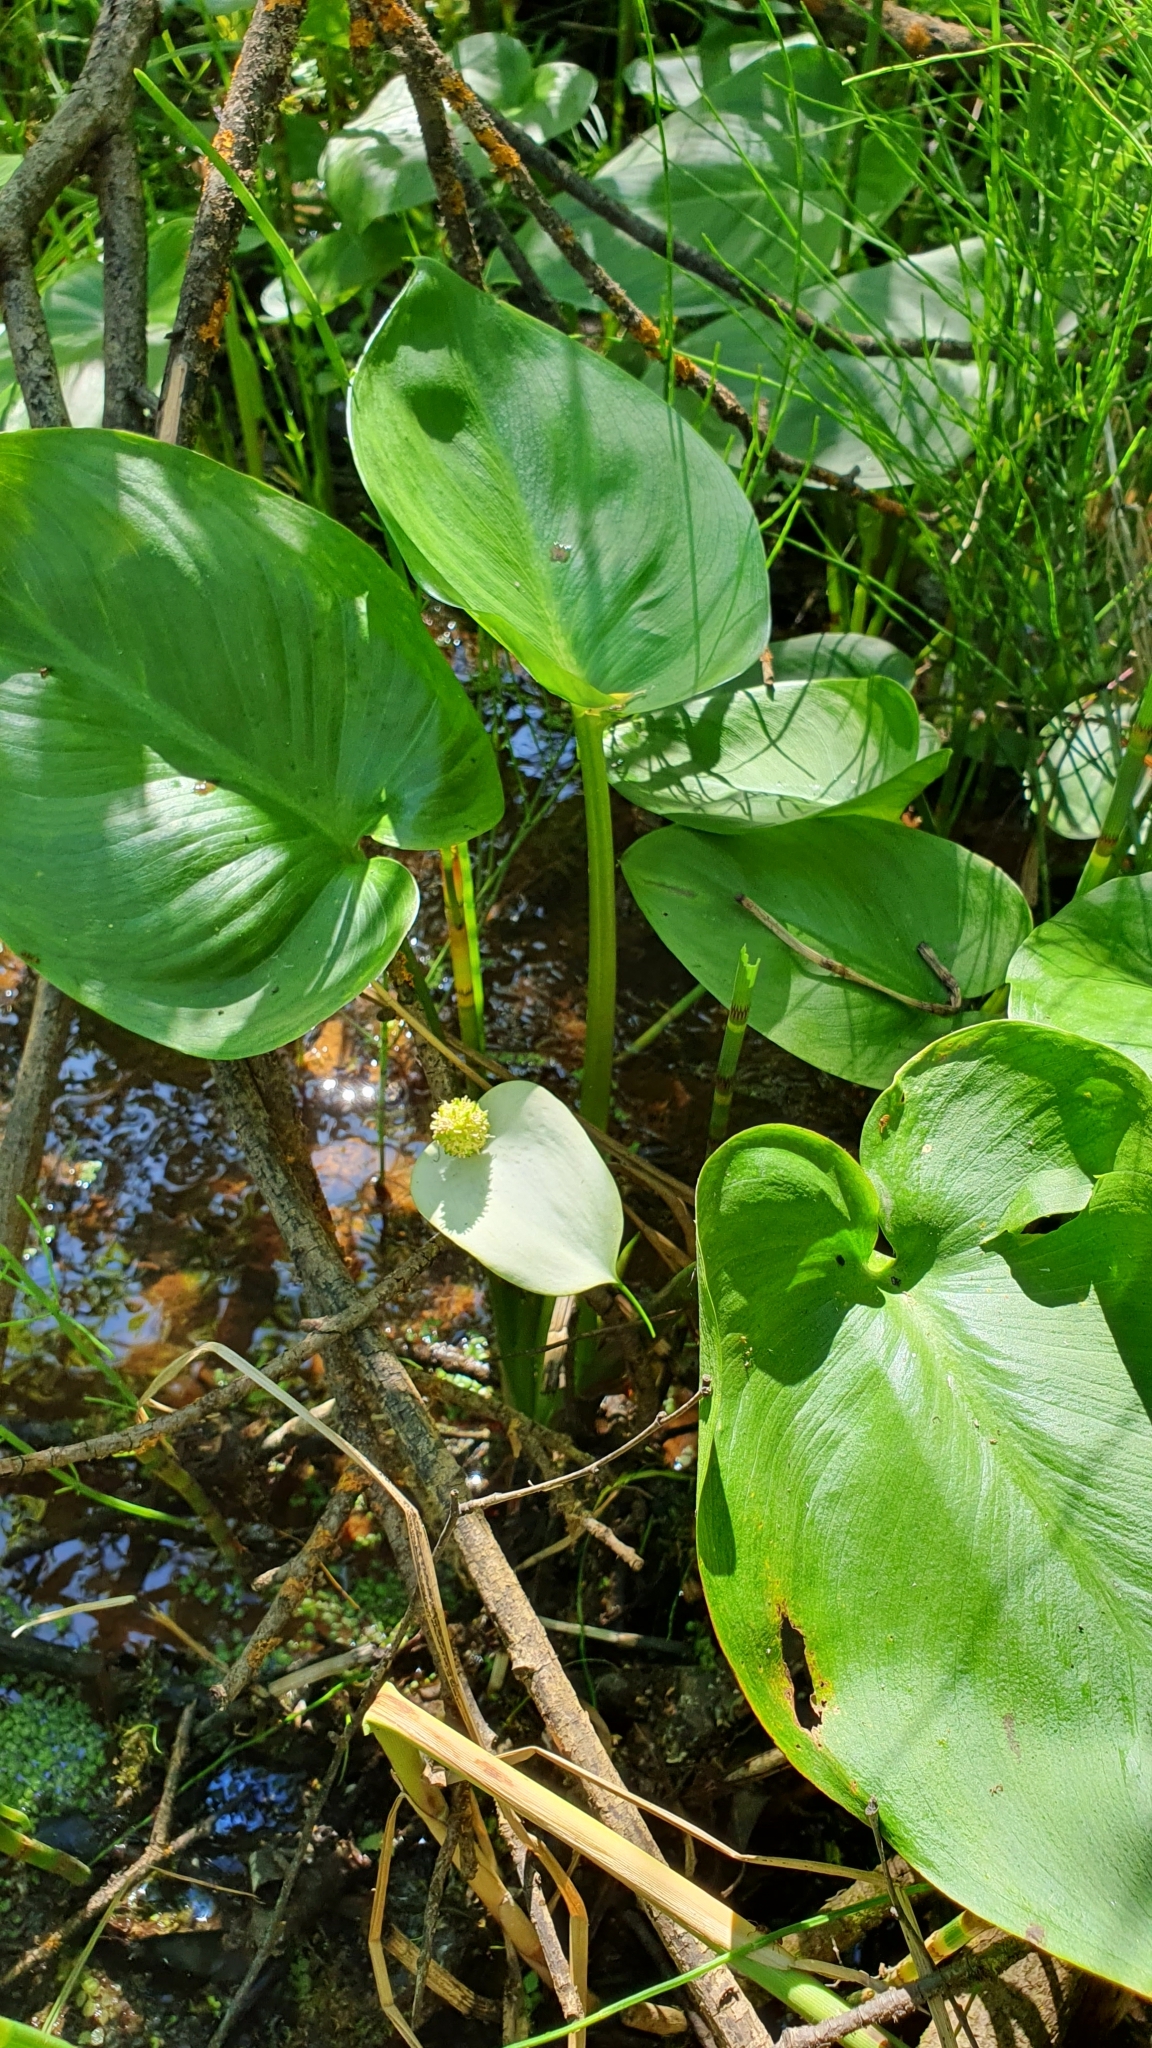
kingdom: Plantae
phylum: Tracheophyta
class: Liliopsida
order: Alismatales
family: Araceae
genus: Calla
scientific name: Calla palustris
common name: Bog arum
